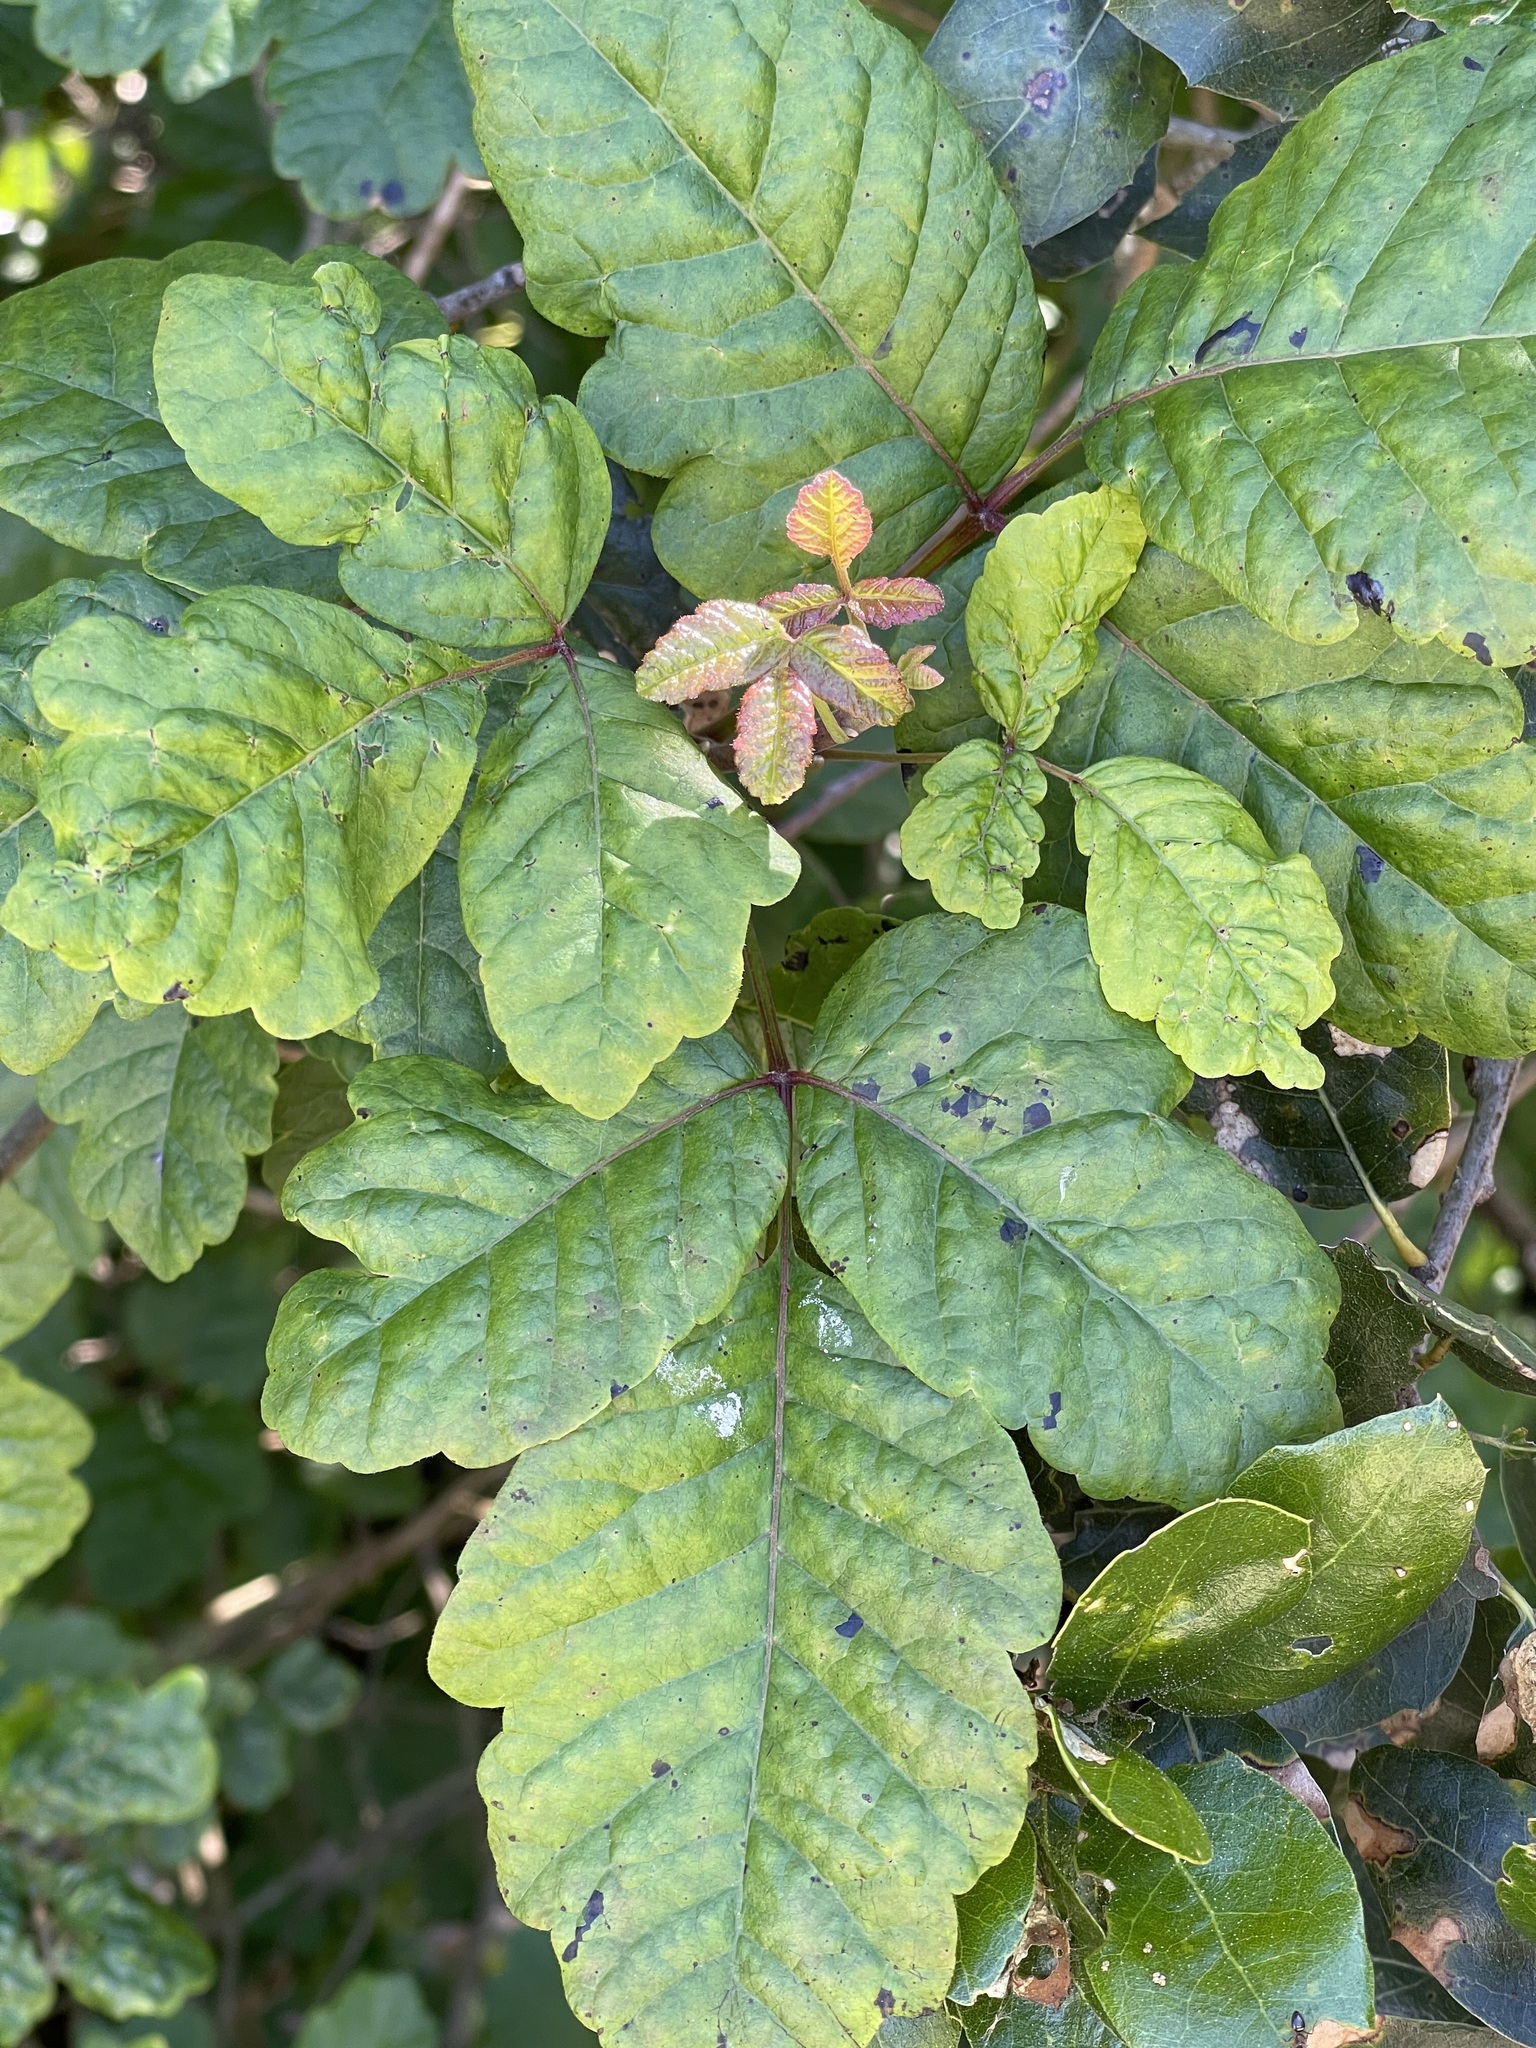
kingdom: Plantae
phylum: Tracheophyta
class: Magnoliopsida
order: Sapindales
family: Anacardiaceae
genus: Toxicodendron
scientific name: Toxicodendron diversilobum
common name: Pacific poison-oak
